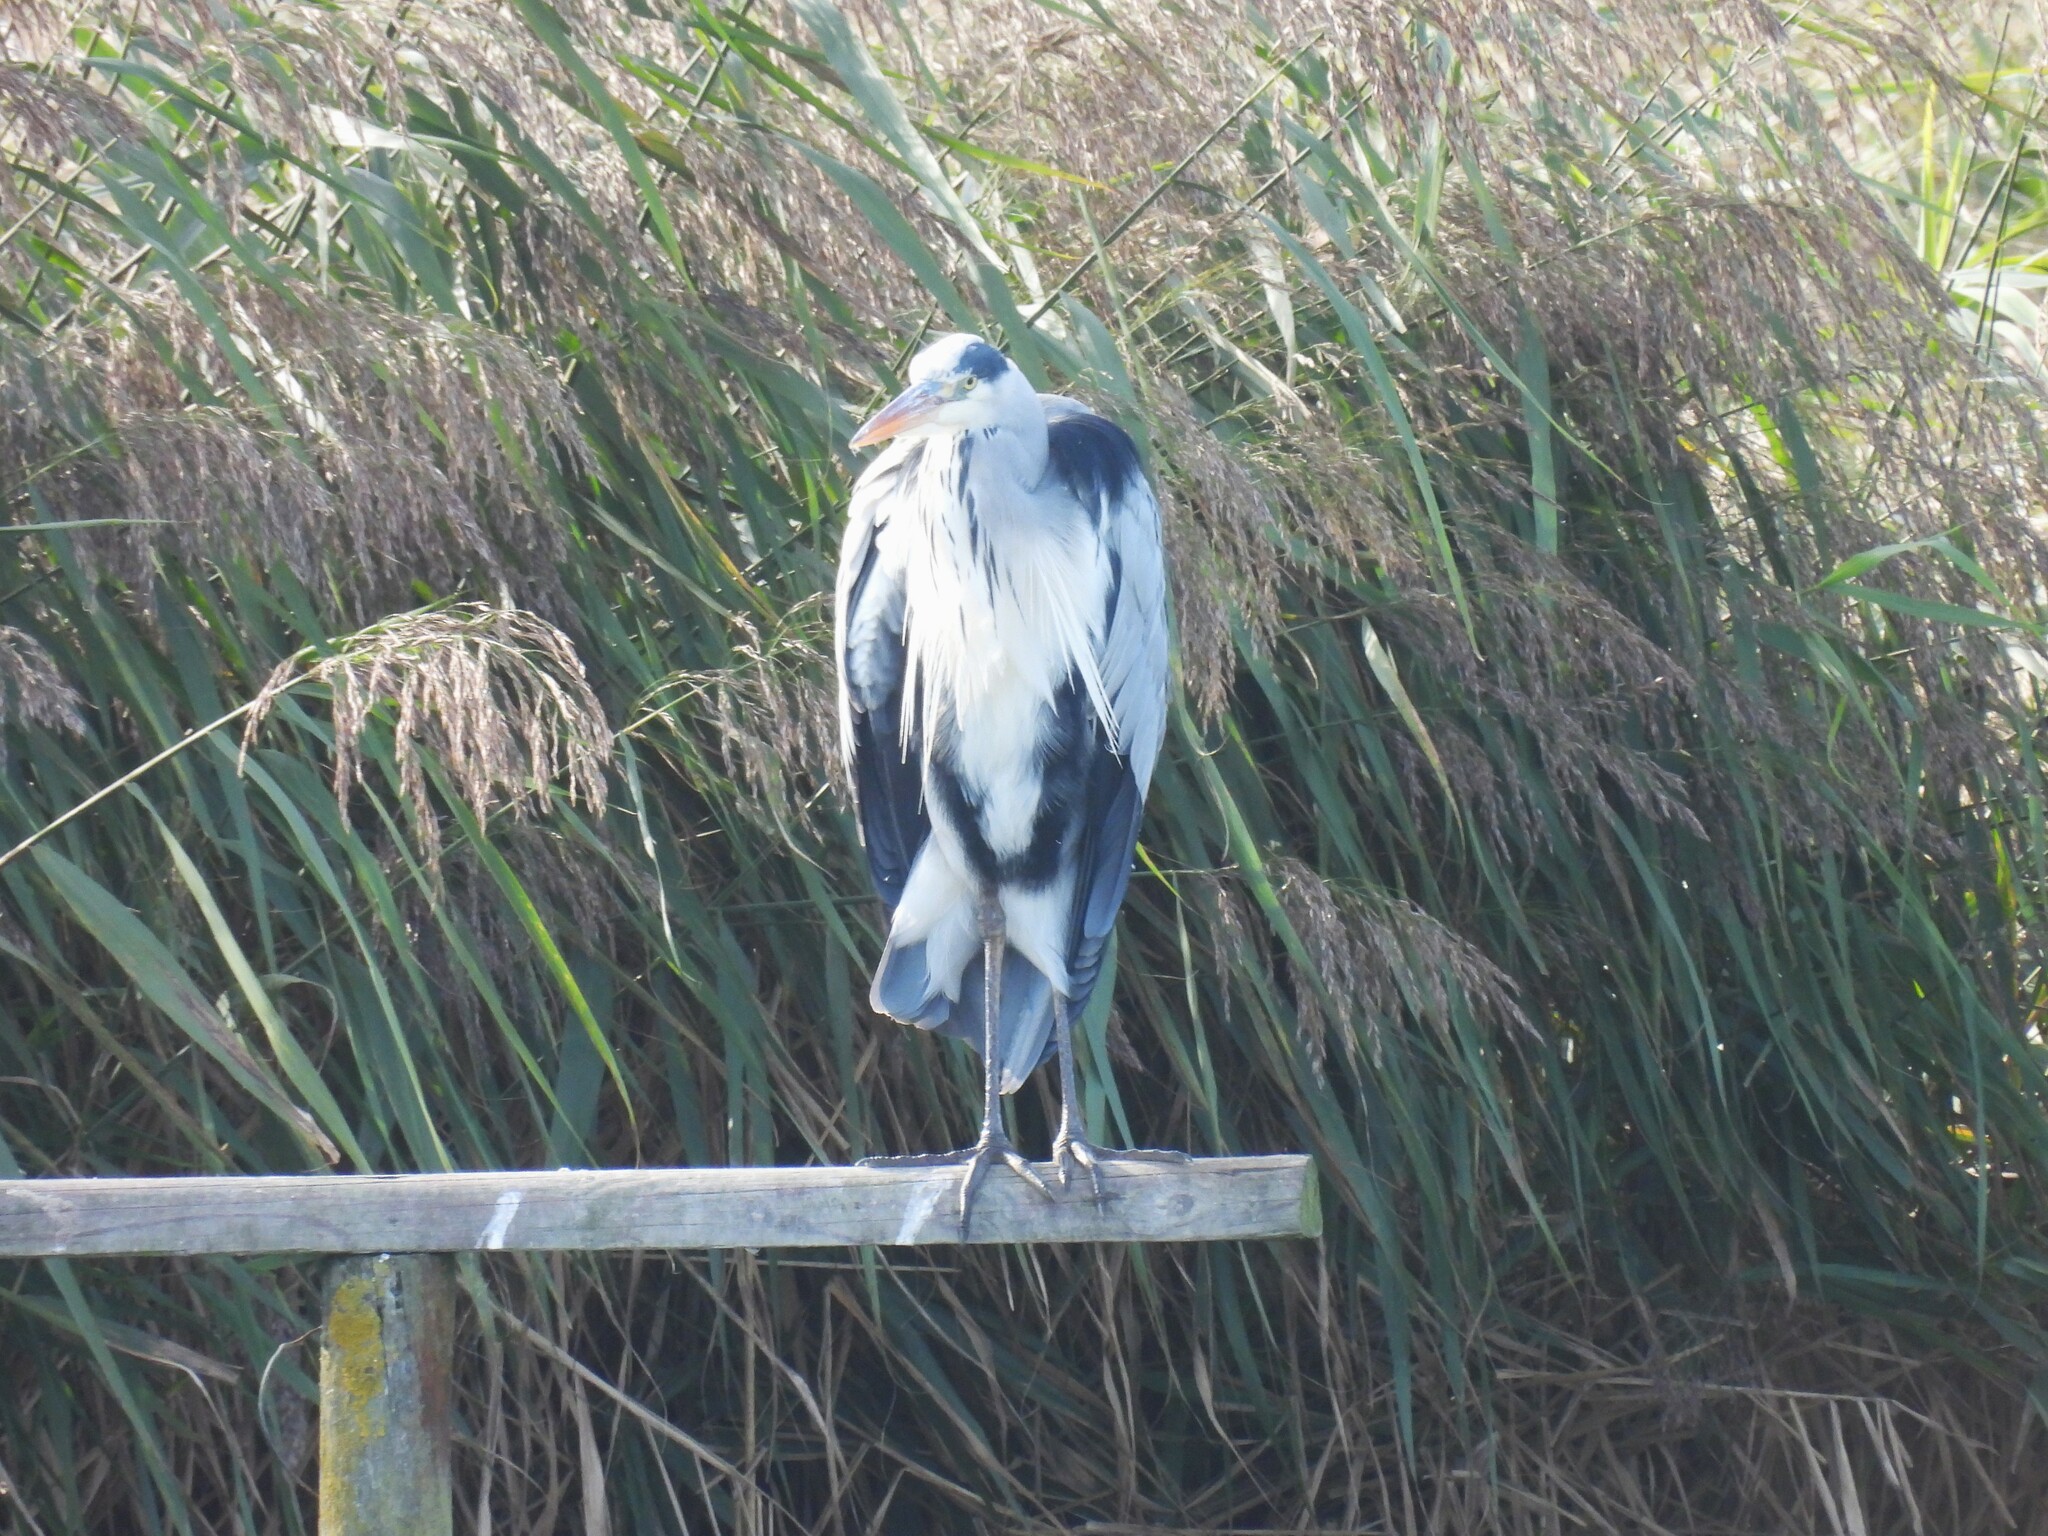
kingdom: Animalia
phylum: Chordata
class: Aves
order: Pelecaniformes
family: Ardeidae
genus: Ardea
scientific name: Ardea cinerea
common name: Grey heron
